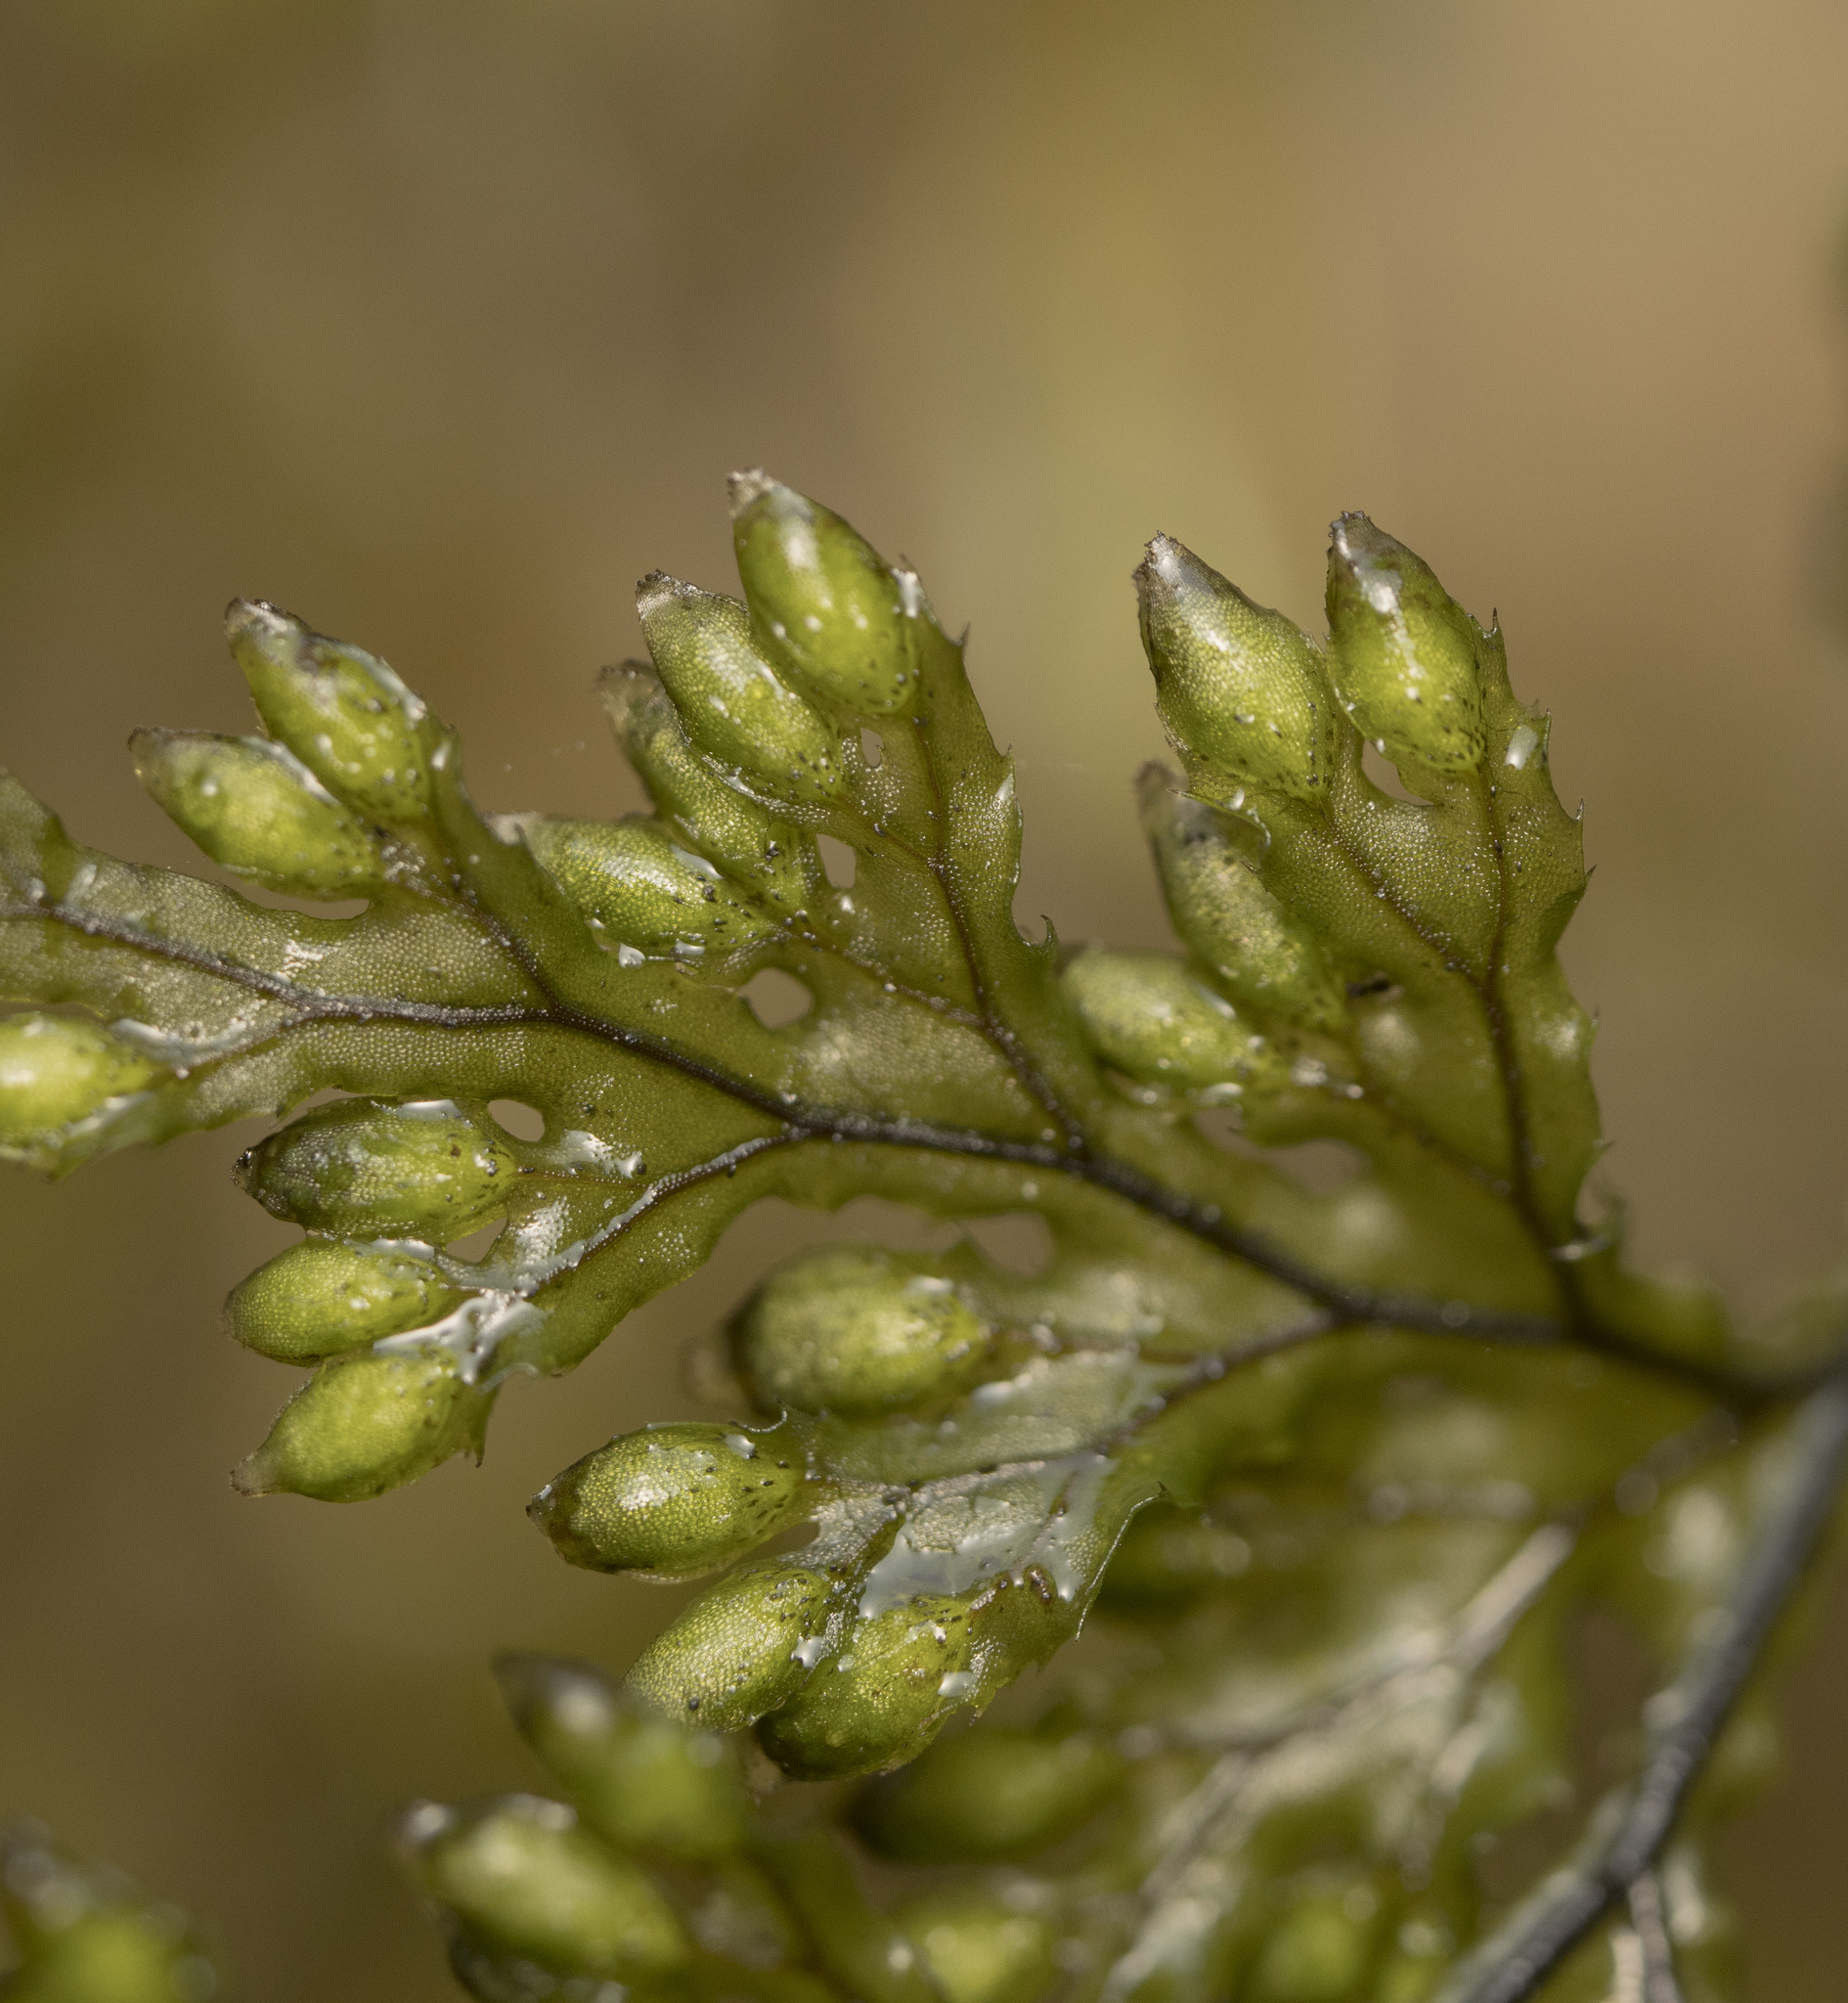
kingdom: Plantae
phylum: Tracheophyta
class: Polypodiopsida
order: Hymenophyllales
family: Hymenophyllaceae
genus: Hymenophyllum
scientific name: Hymenophyllum krauseanum
